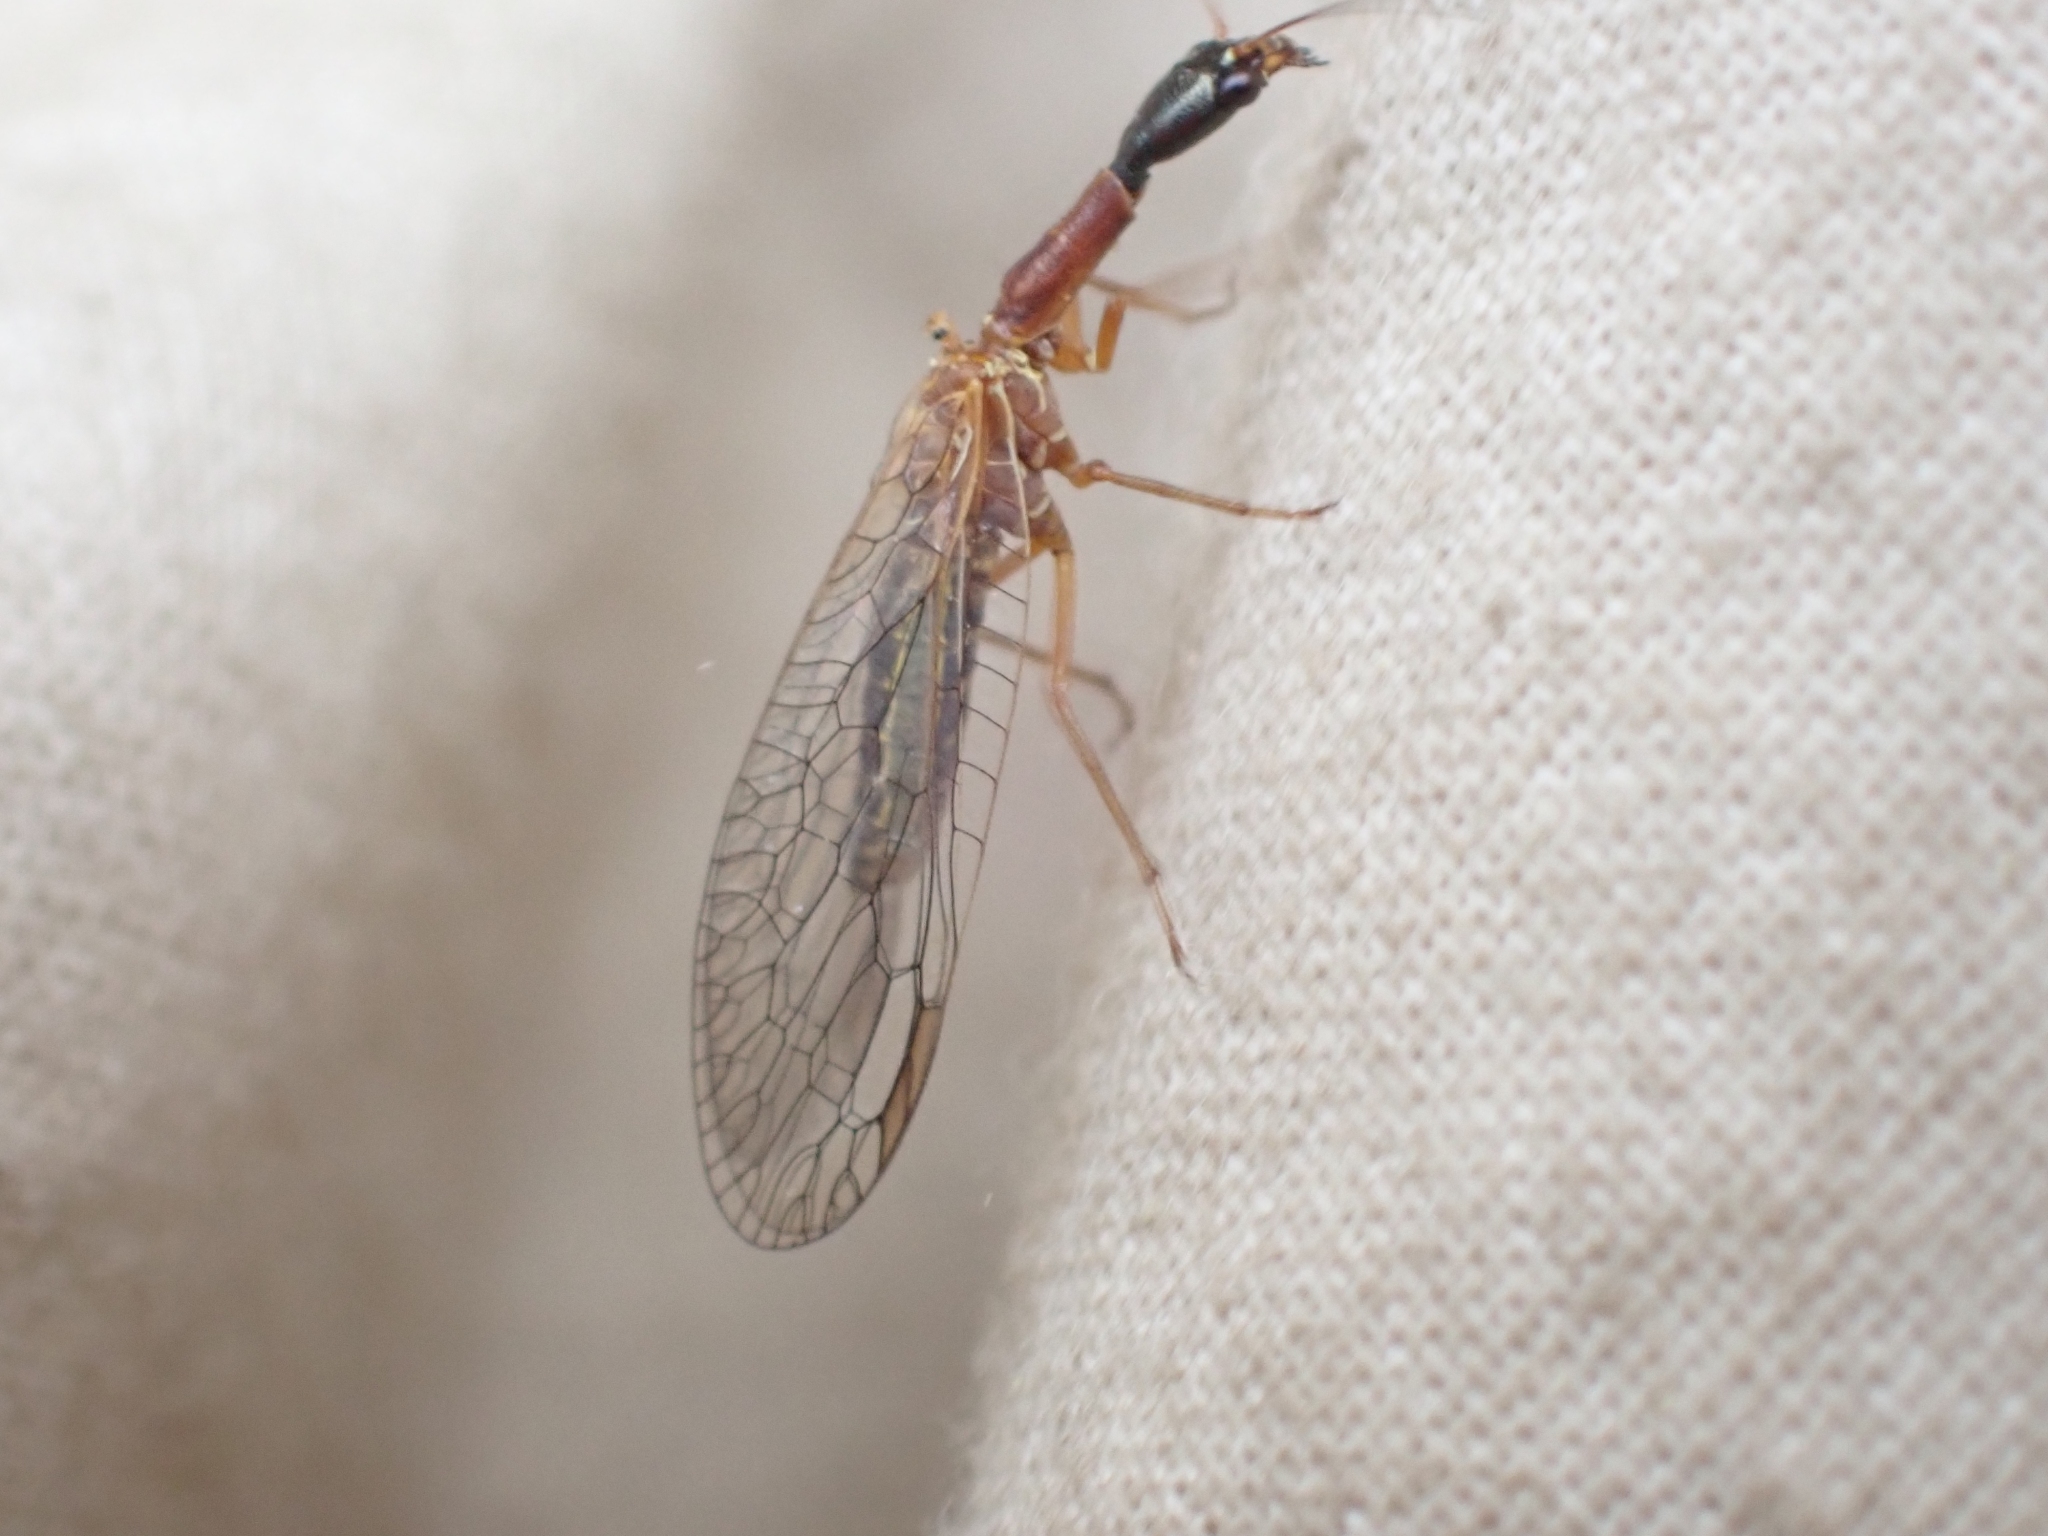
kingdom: Animalia
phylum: Arthropoda
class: Insecta
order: Raphidioptera
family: Raphidiidae
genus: Agulla
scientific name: Agulla unicolor
